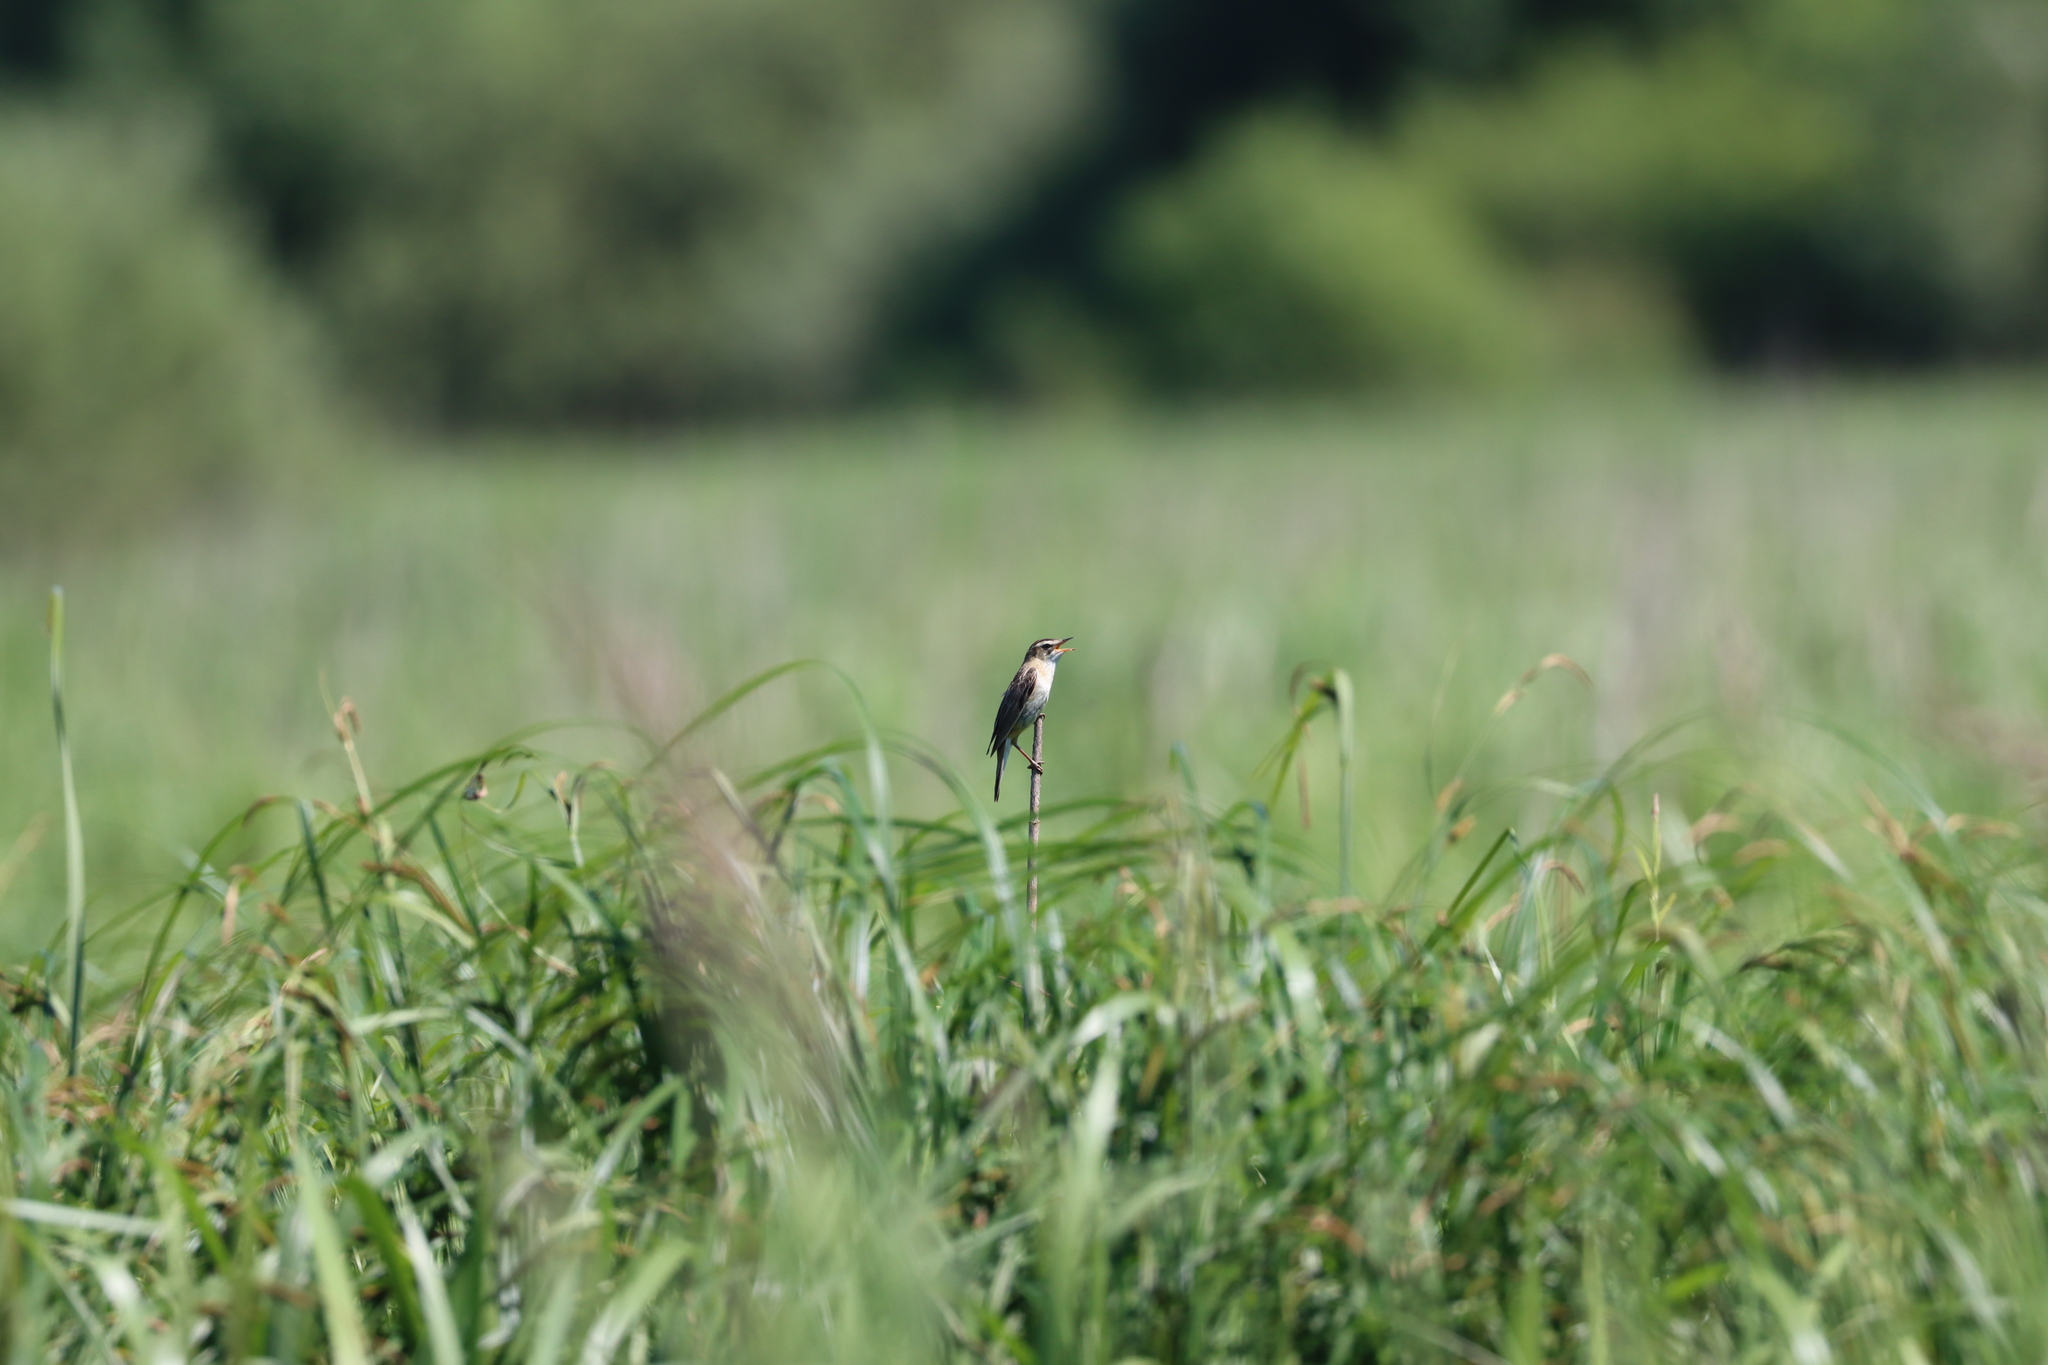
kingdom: Animalia
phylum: Chordata
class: Aves
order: Passeriformes
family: Acrocephalidae
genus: Acrocephalus
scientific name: Acrocephalus schoenobaenus
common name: Sedge warbler
